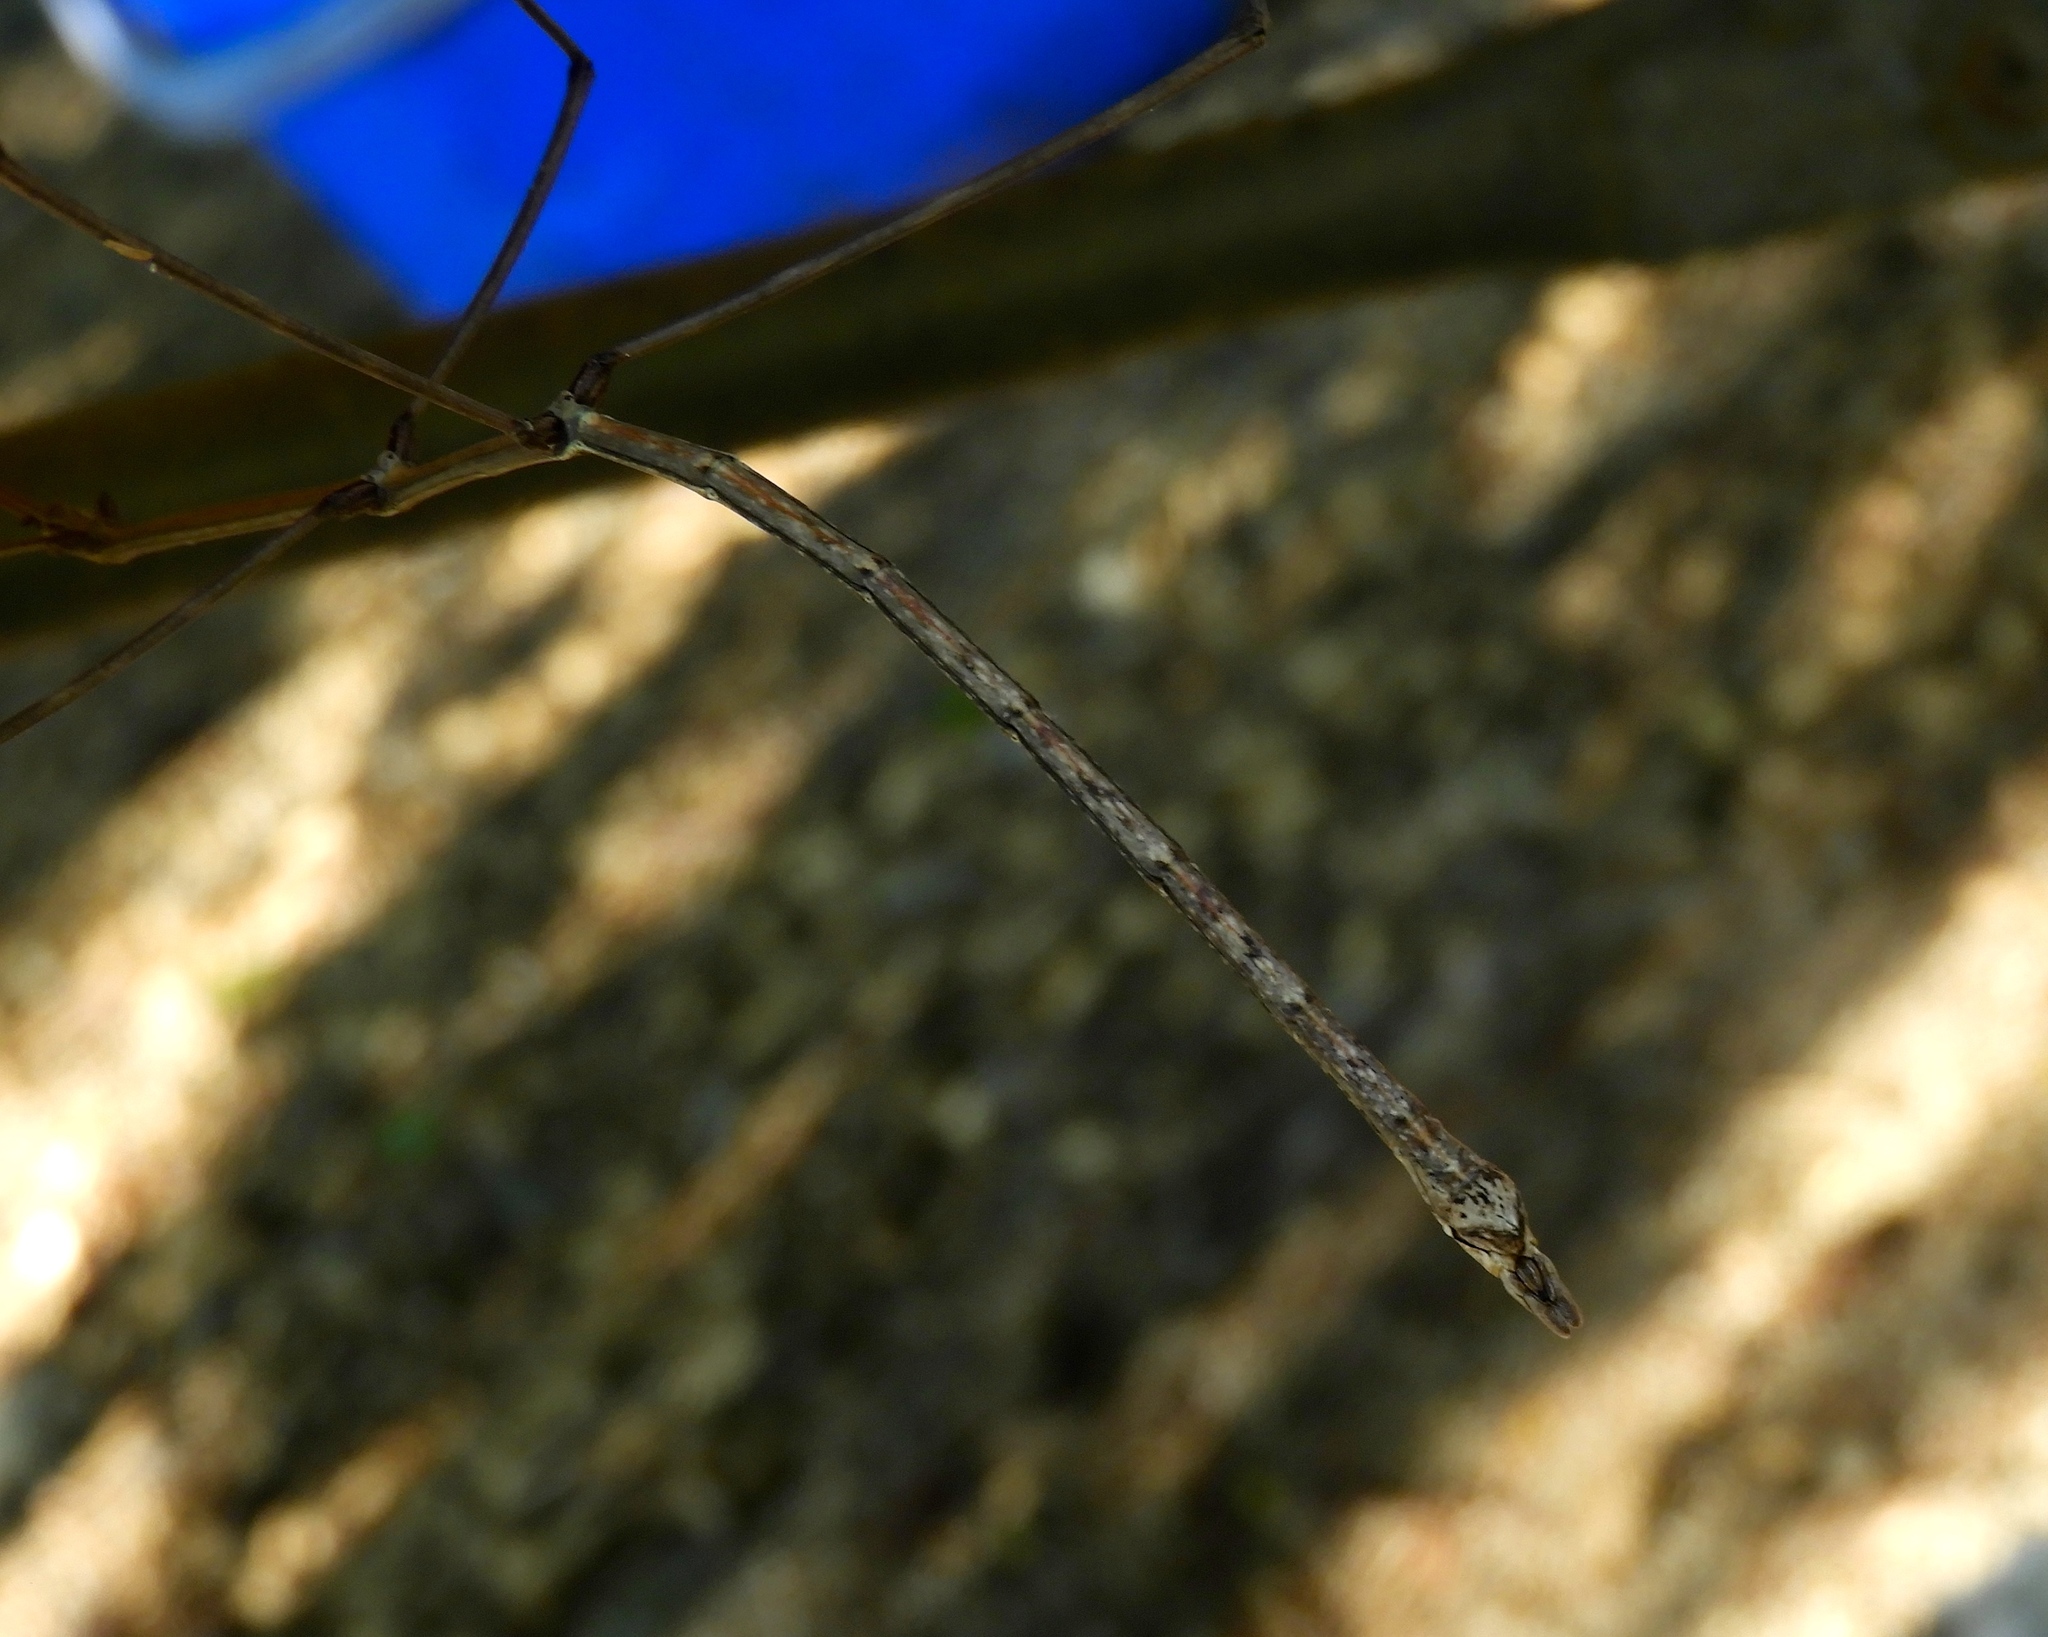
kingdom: Animalia
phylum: Arthropoda
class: Insecta
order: Phasmida
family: Diapheromeridae
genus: Phanocles
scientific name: Phanocles
